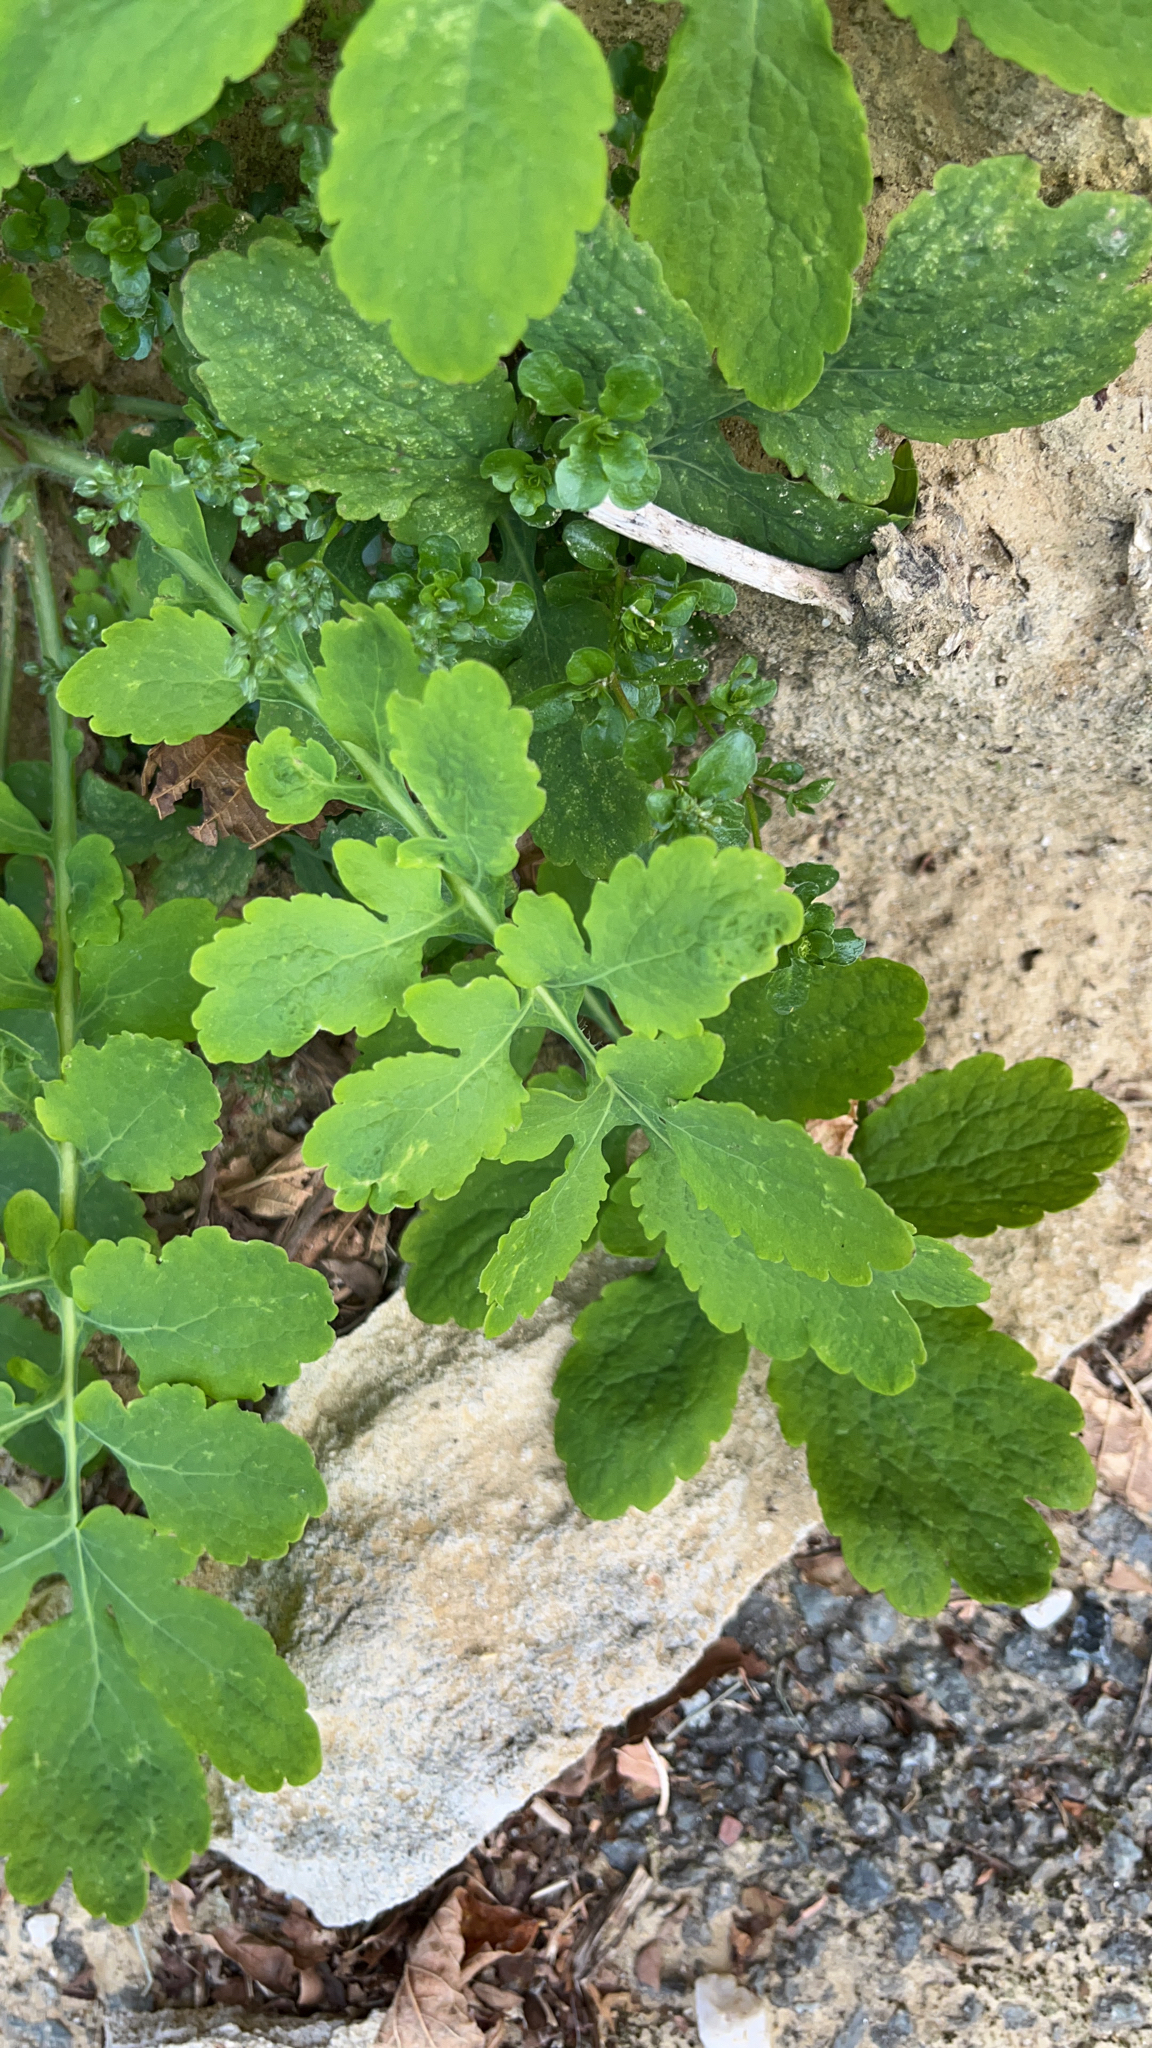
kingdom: Plantae
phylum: Tracheophyta
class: Magnoliopsida
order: Ranunculales
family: Papaveraceae
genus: Chelidonium
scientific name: Chelidonium majus
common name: Greater celandine
